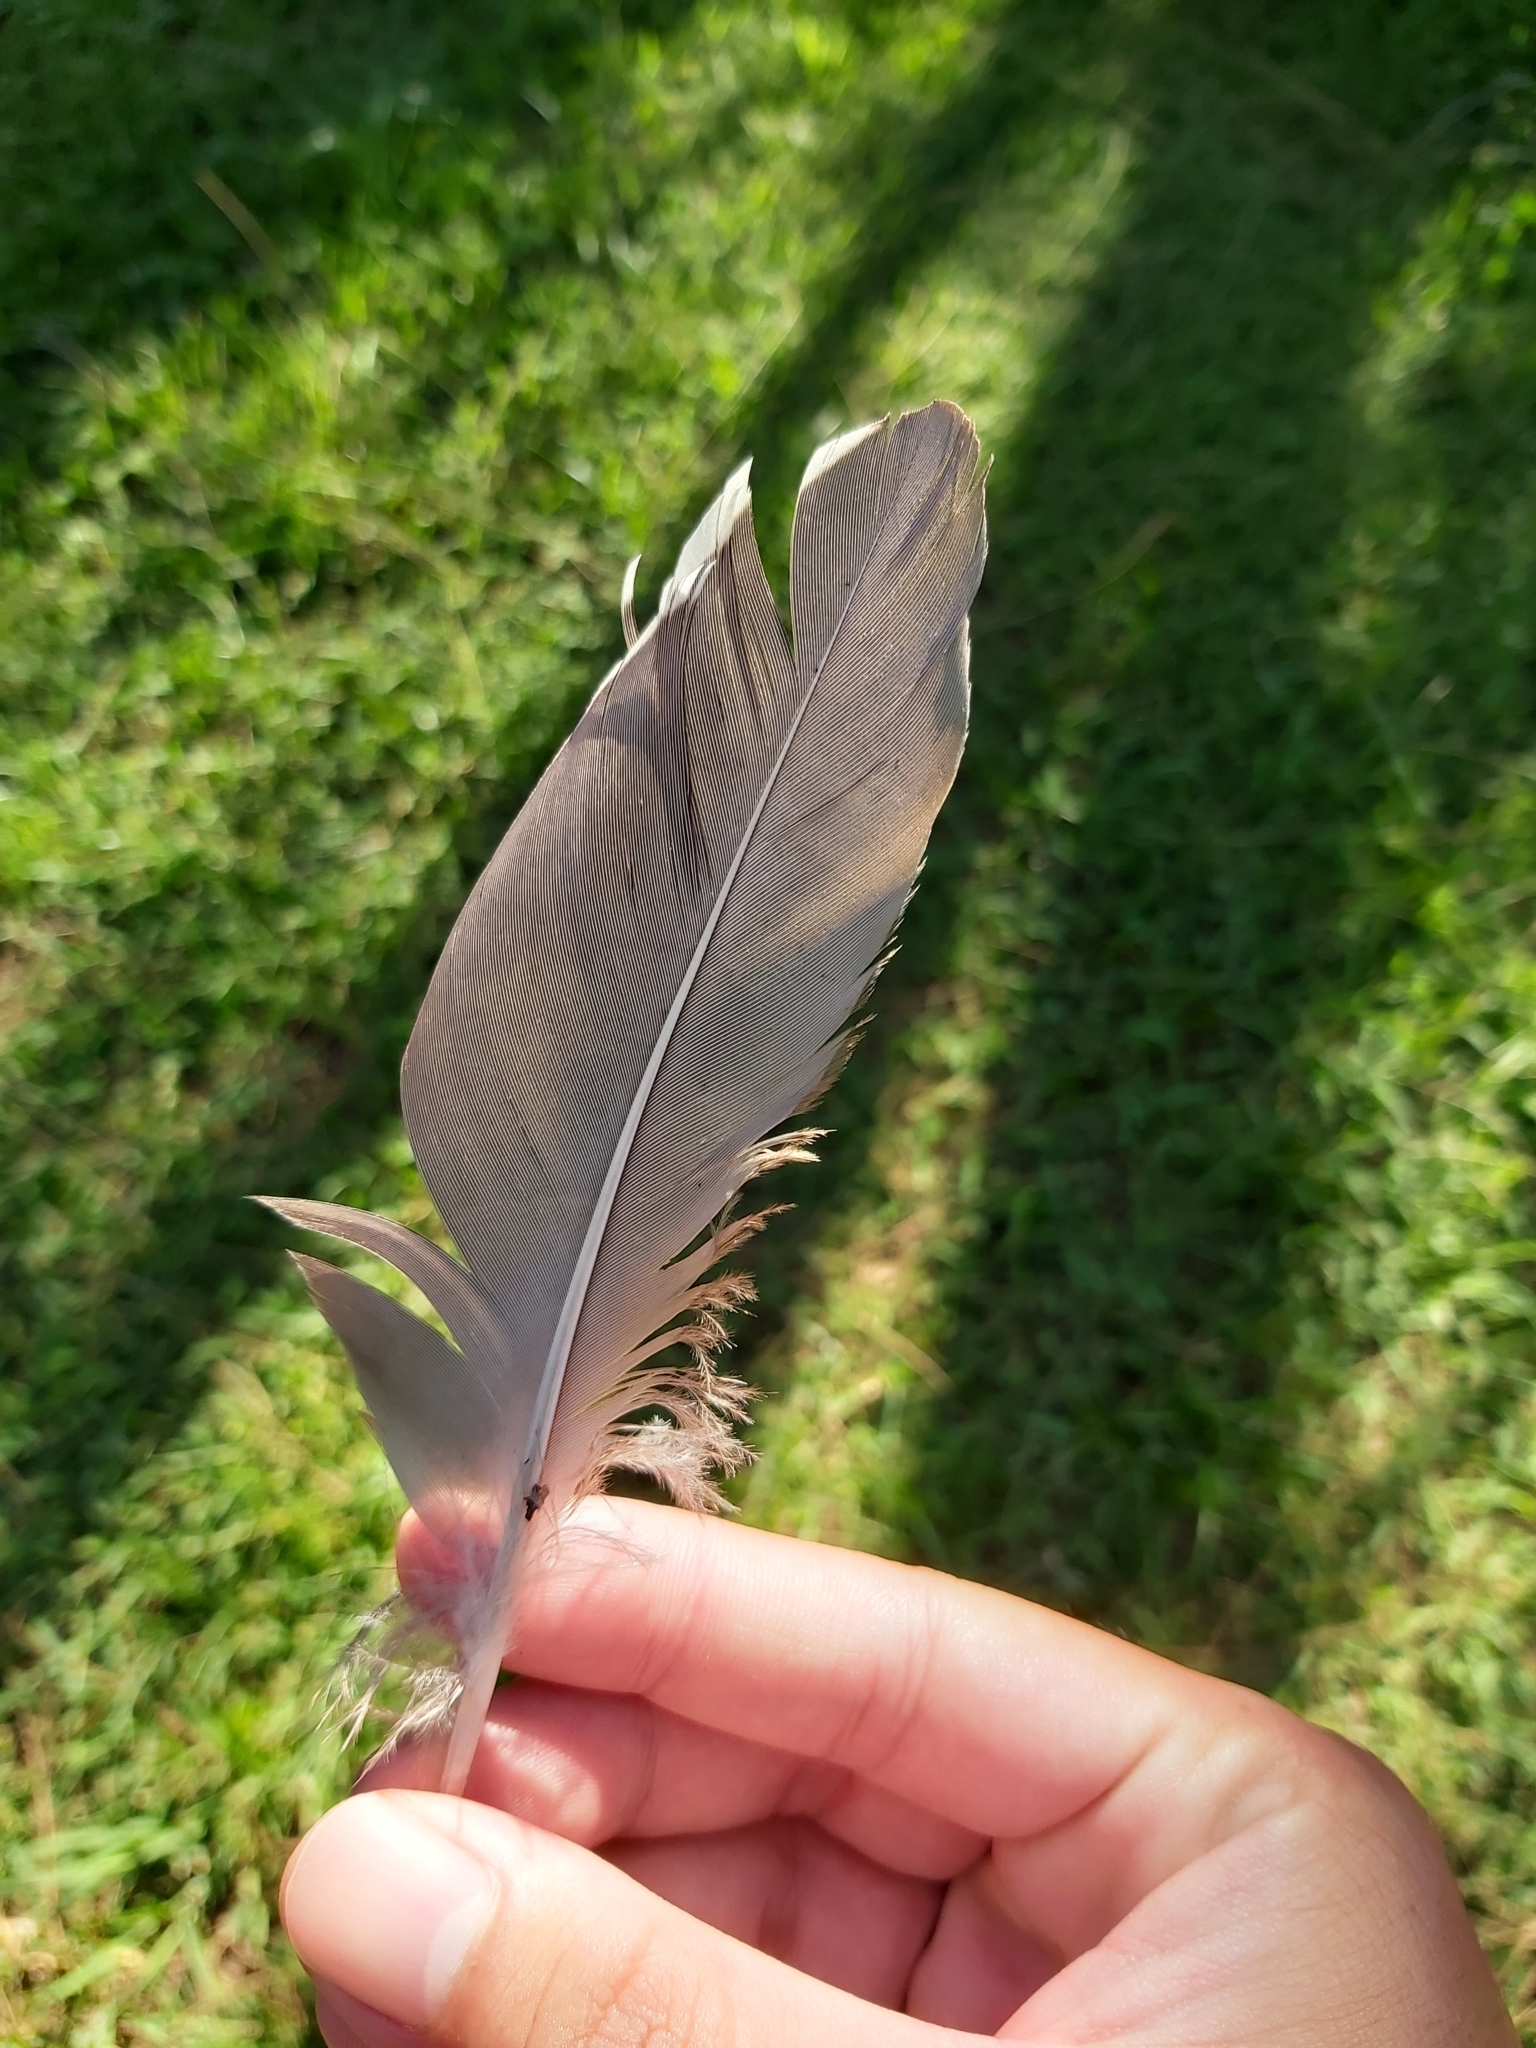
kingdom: Animalia
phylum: Chordata
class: Aves
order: Anseriformes
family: Anatidae
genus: Anas
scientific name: Anas superciliosa
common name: Pacific black duck
